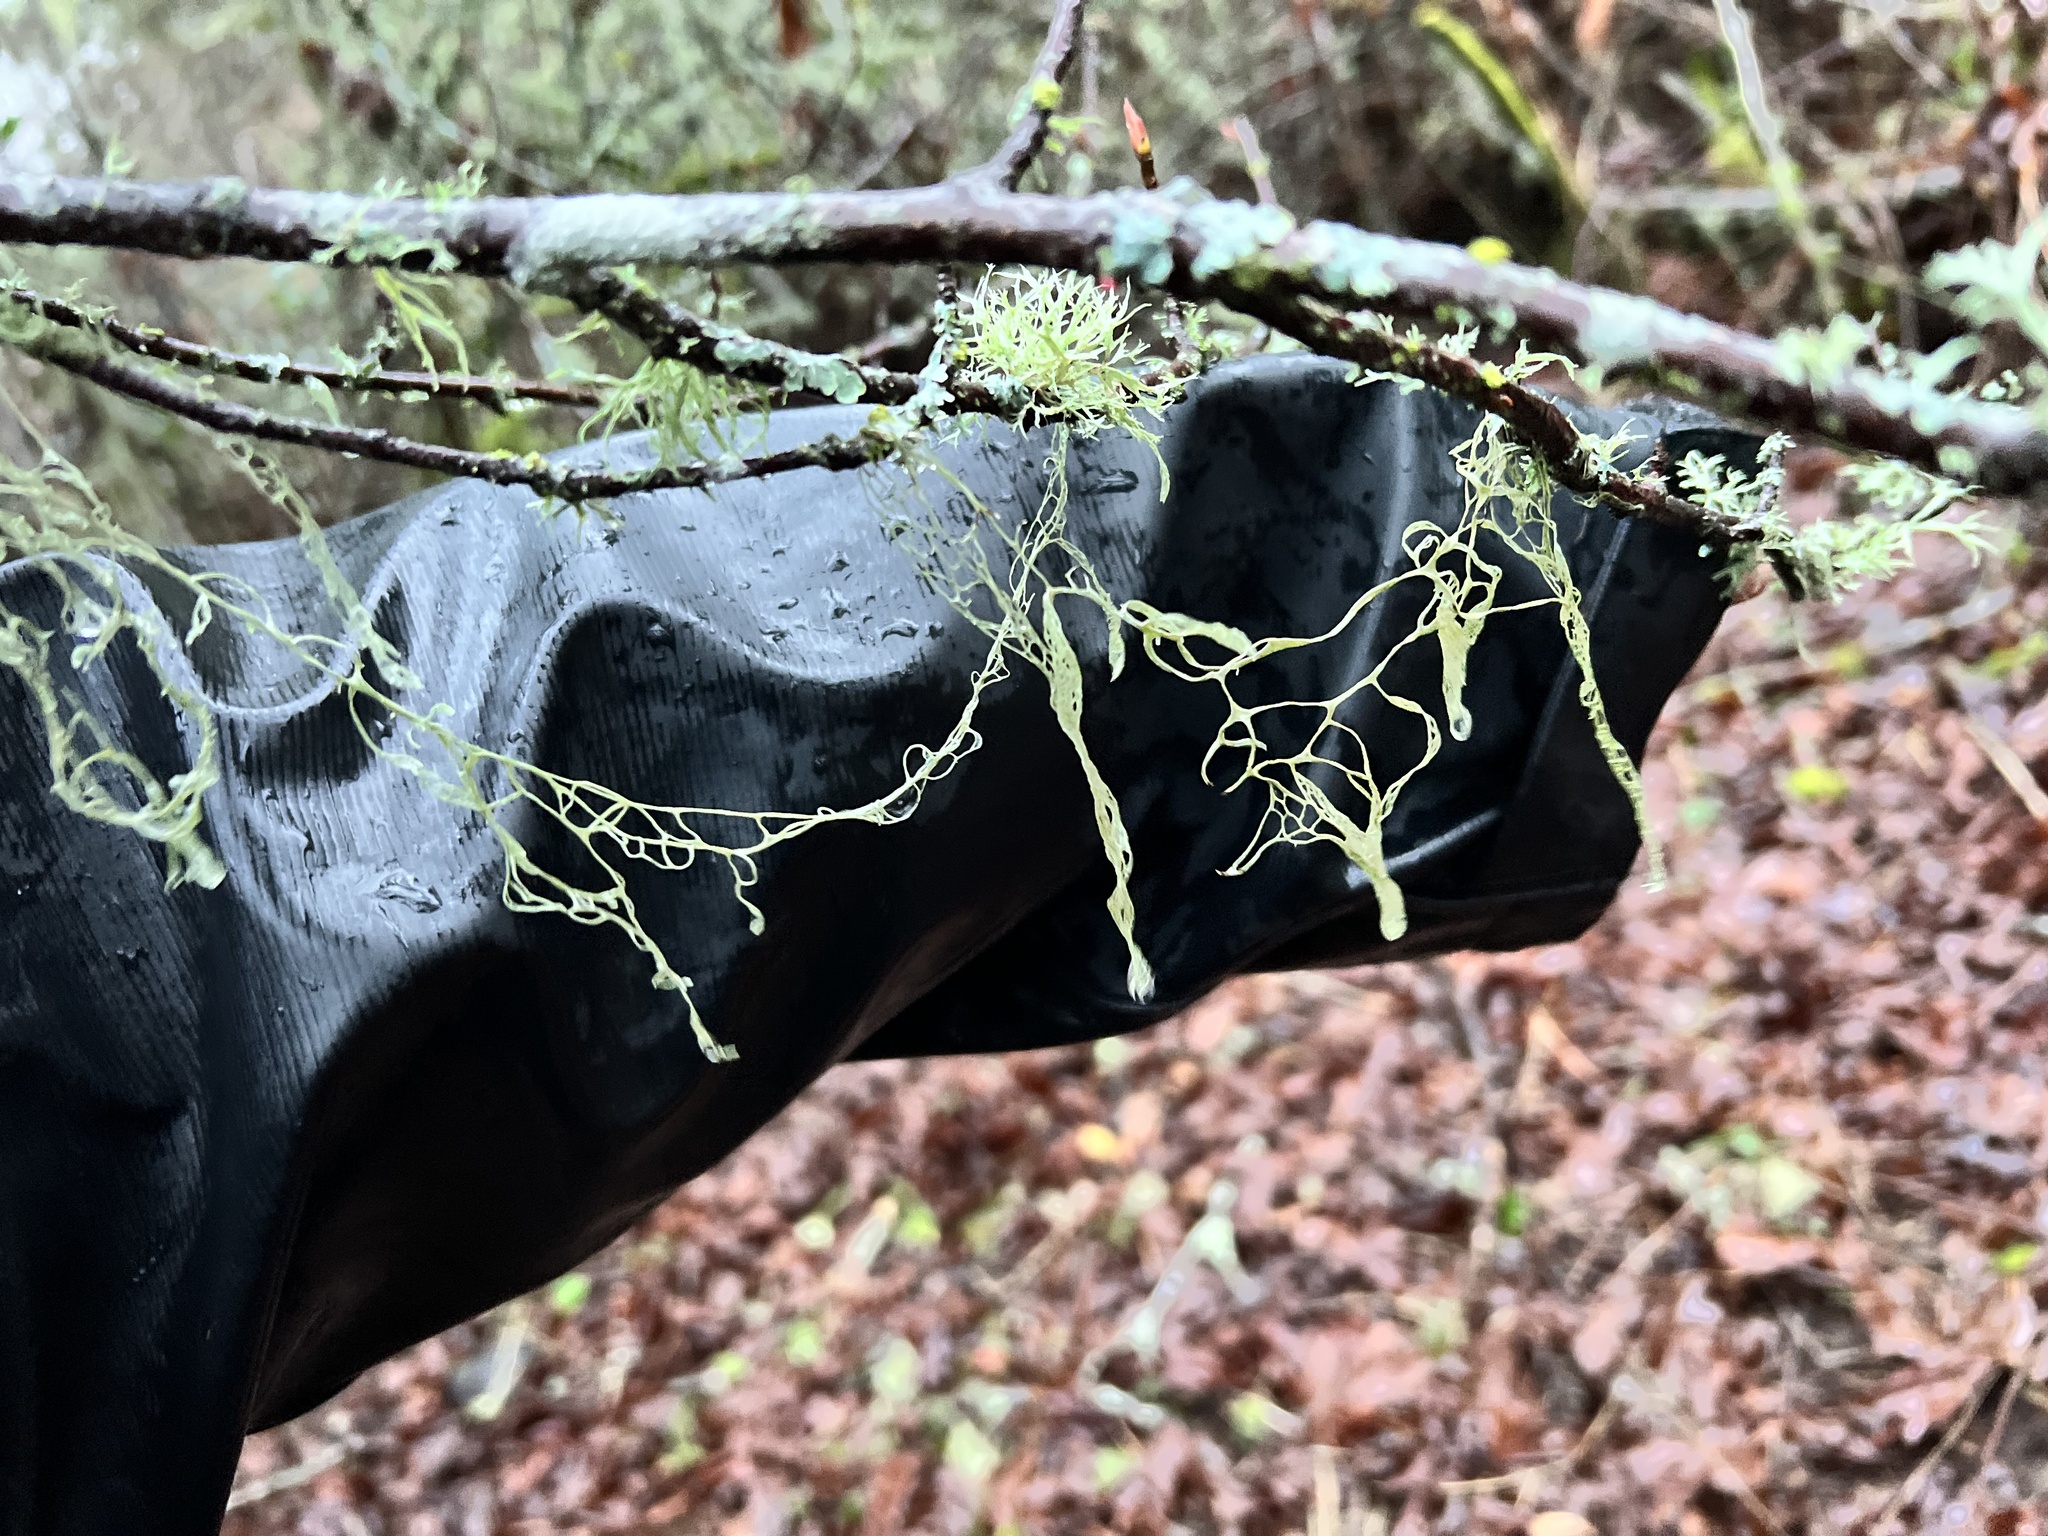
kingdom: Fungi
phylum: Ascomycota
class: Lecanoromycetes
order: Lecanorales
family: Ramalinaceae
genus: Ramalina
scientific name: Ramalina menziesii
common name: Lace lichen
